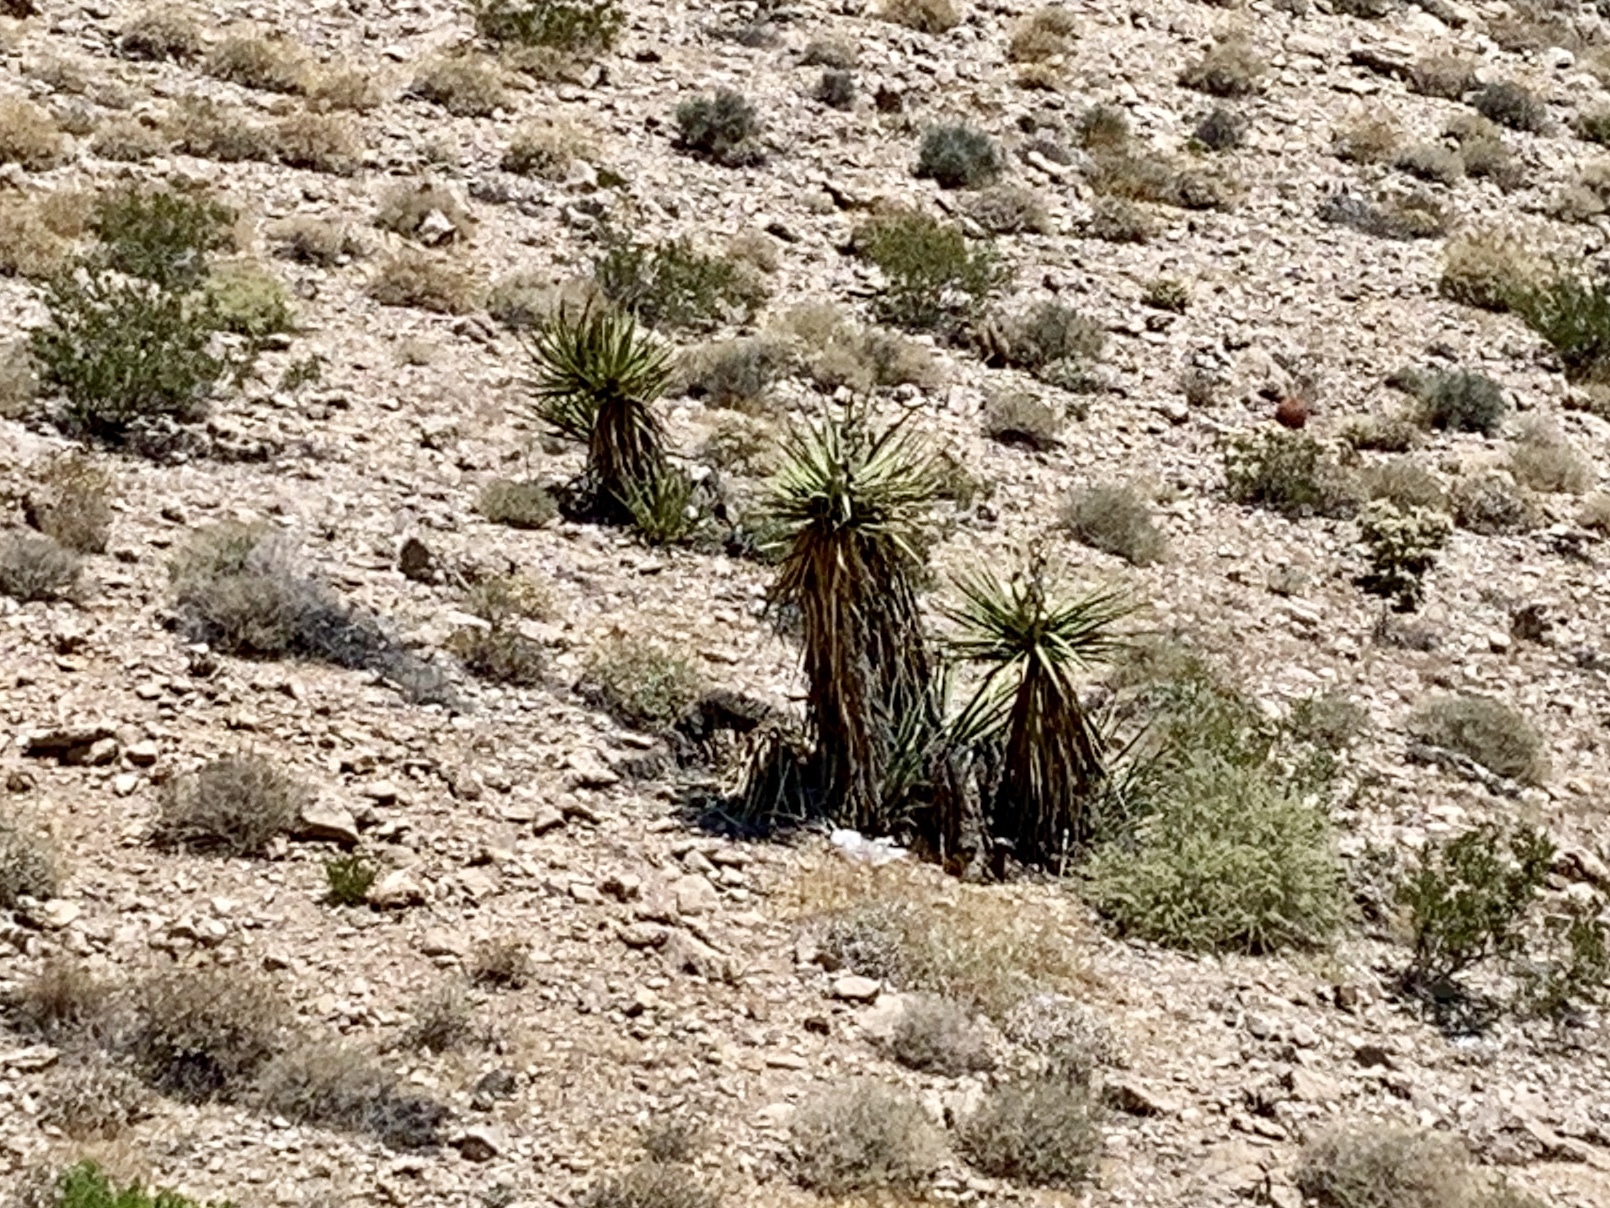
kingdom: Plantae
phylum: Tracheophyta
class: Liliopsida
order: Asparagales
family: Asparagaceae
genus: Yucca
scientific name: Yucca schidigera
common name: Mojave yucca
